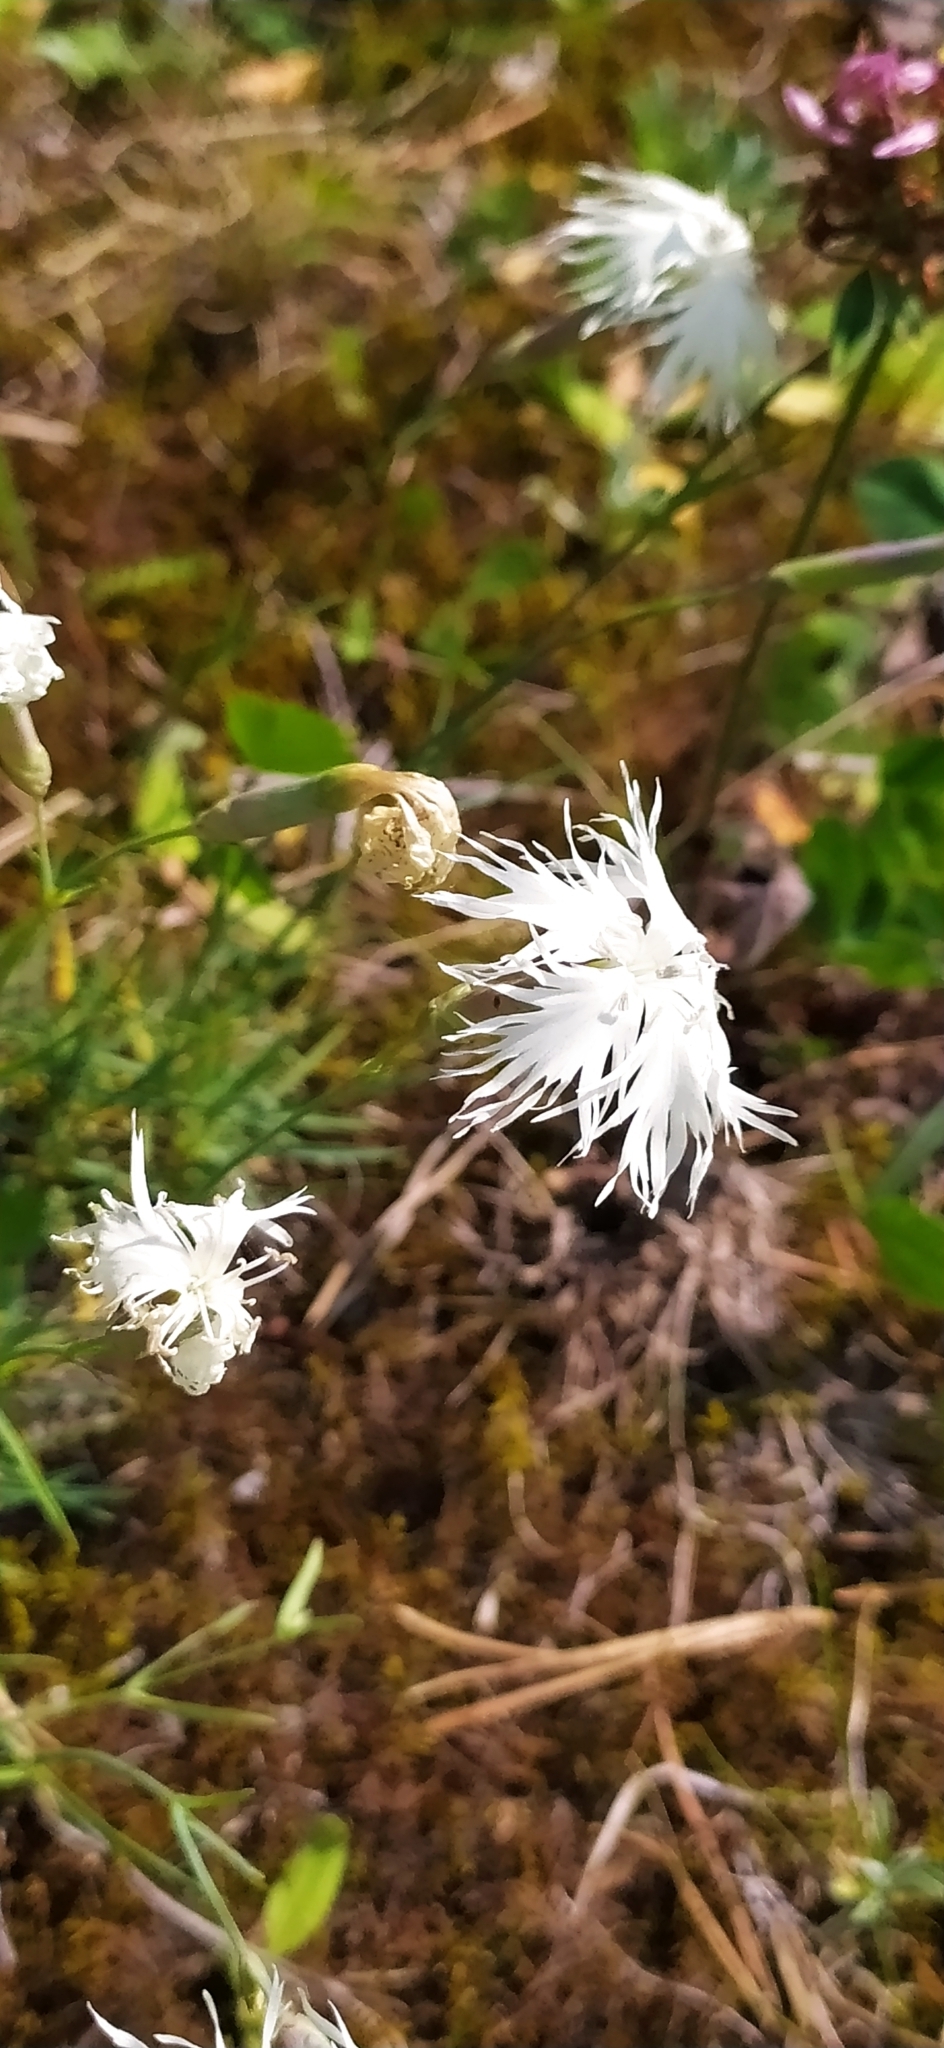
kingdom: Plantae
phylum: Tracheophyta
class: Magnoliopsida
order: Caryophyllales
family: Caryophyllaceae
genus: Dianthus
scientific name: Dianthus acicularis
